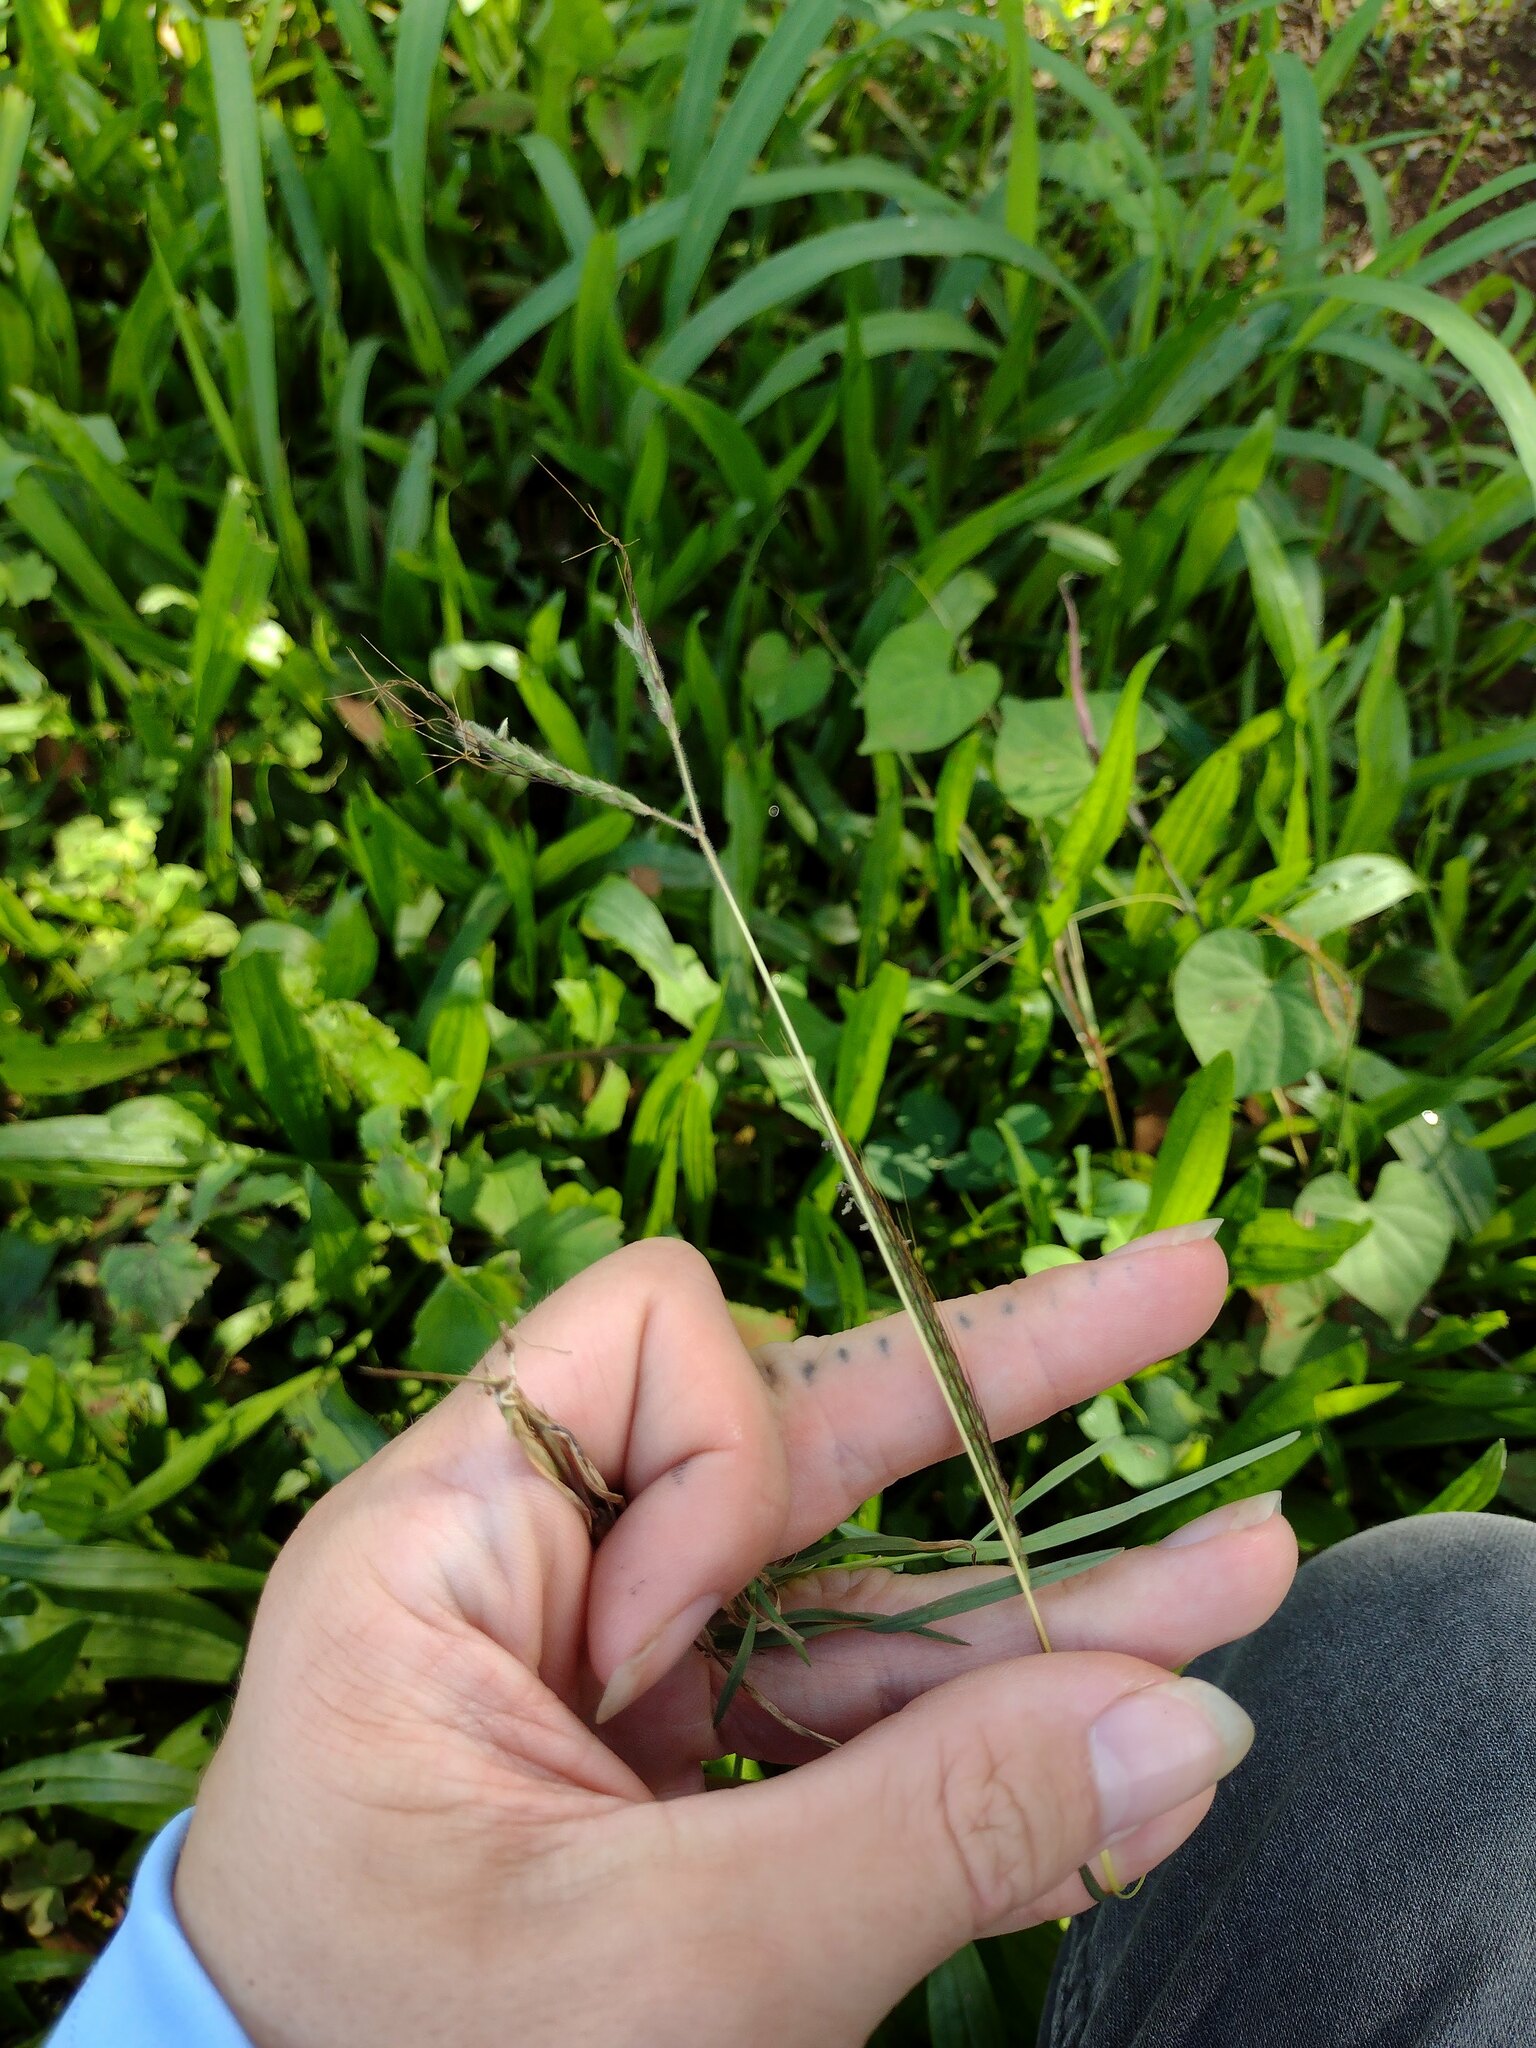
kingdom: Plantae
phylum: Tracheophyta
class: Liliopsida
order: Poales
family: Poaceae
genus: Dichanthium
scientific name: Dichanthium aristatum
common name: Angleton bluestem
